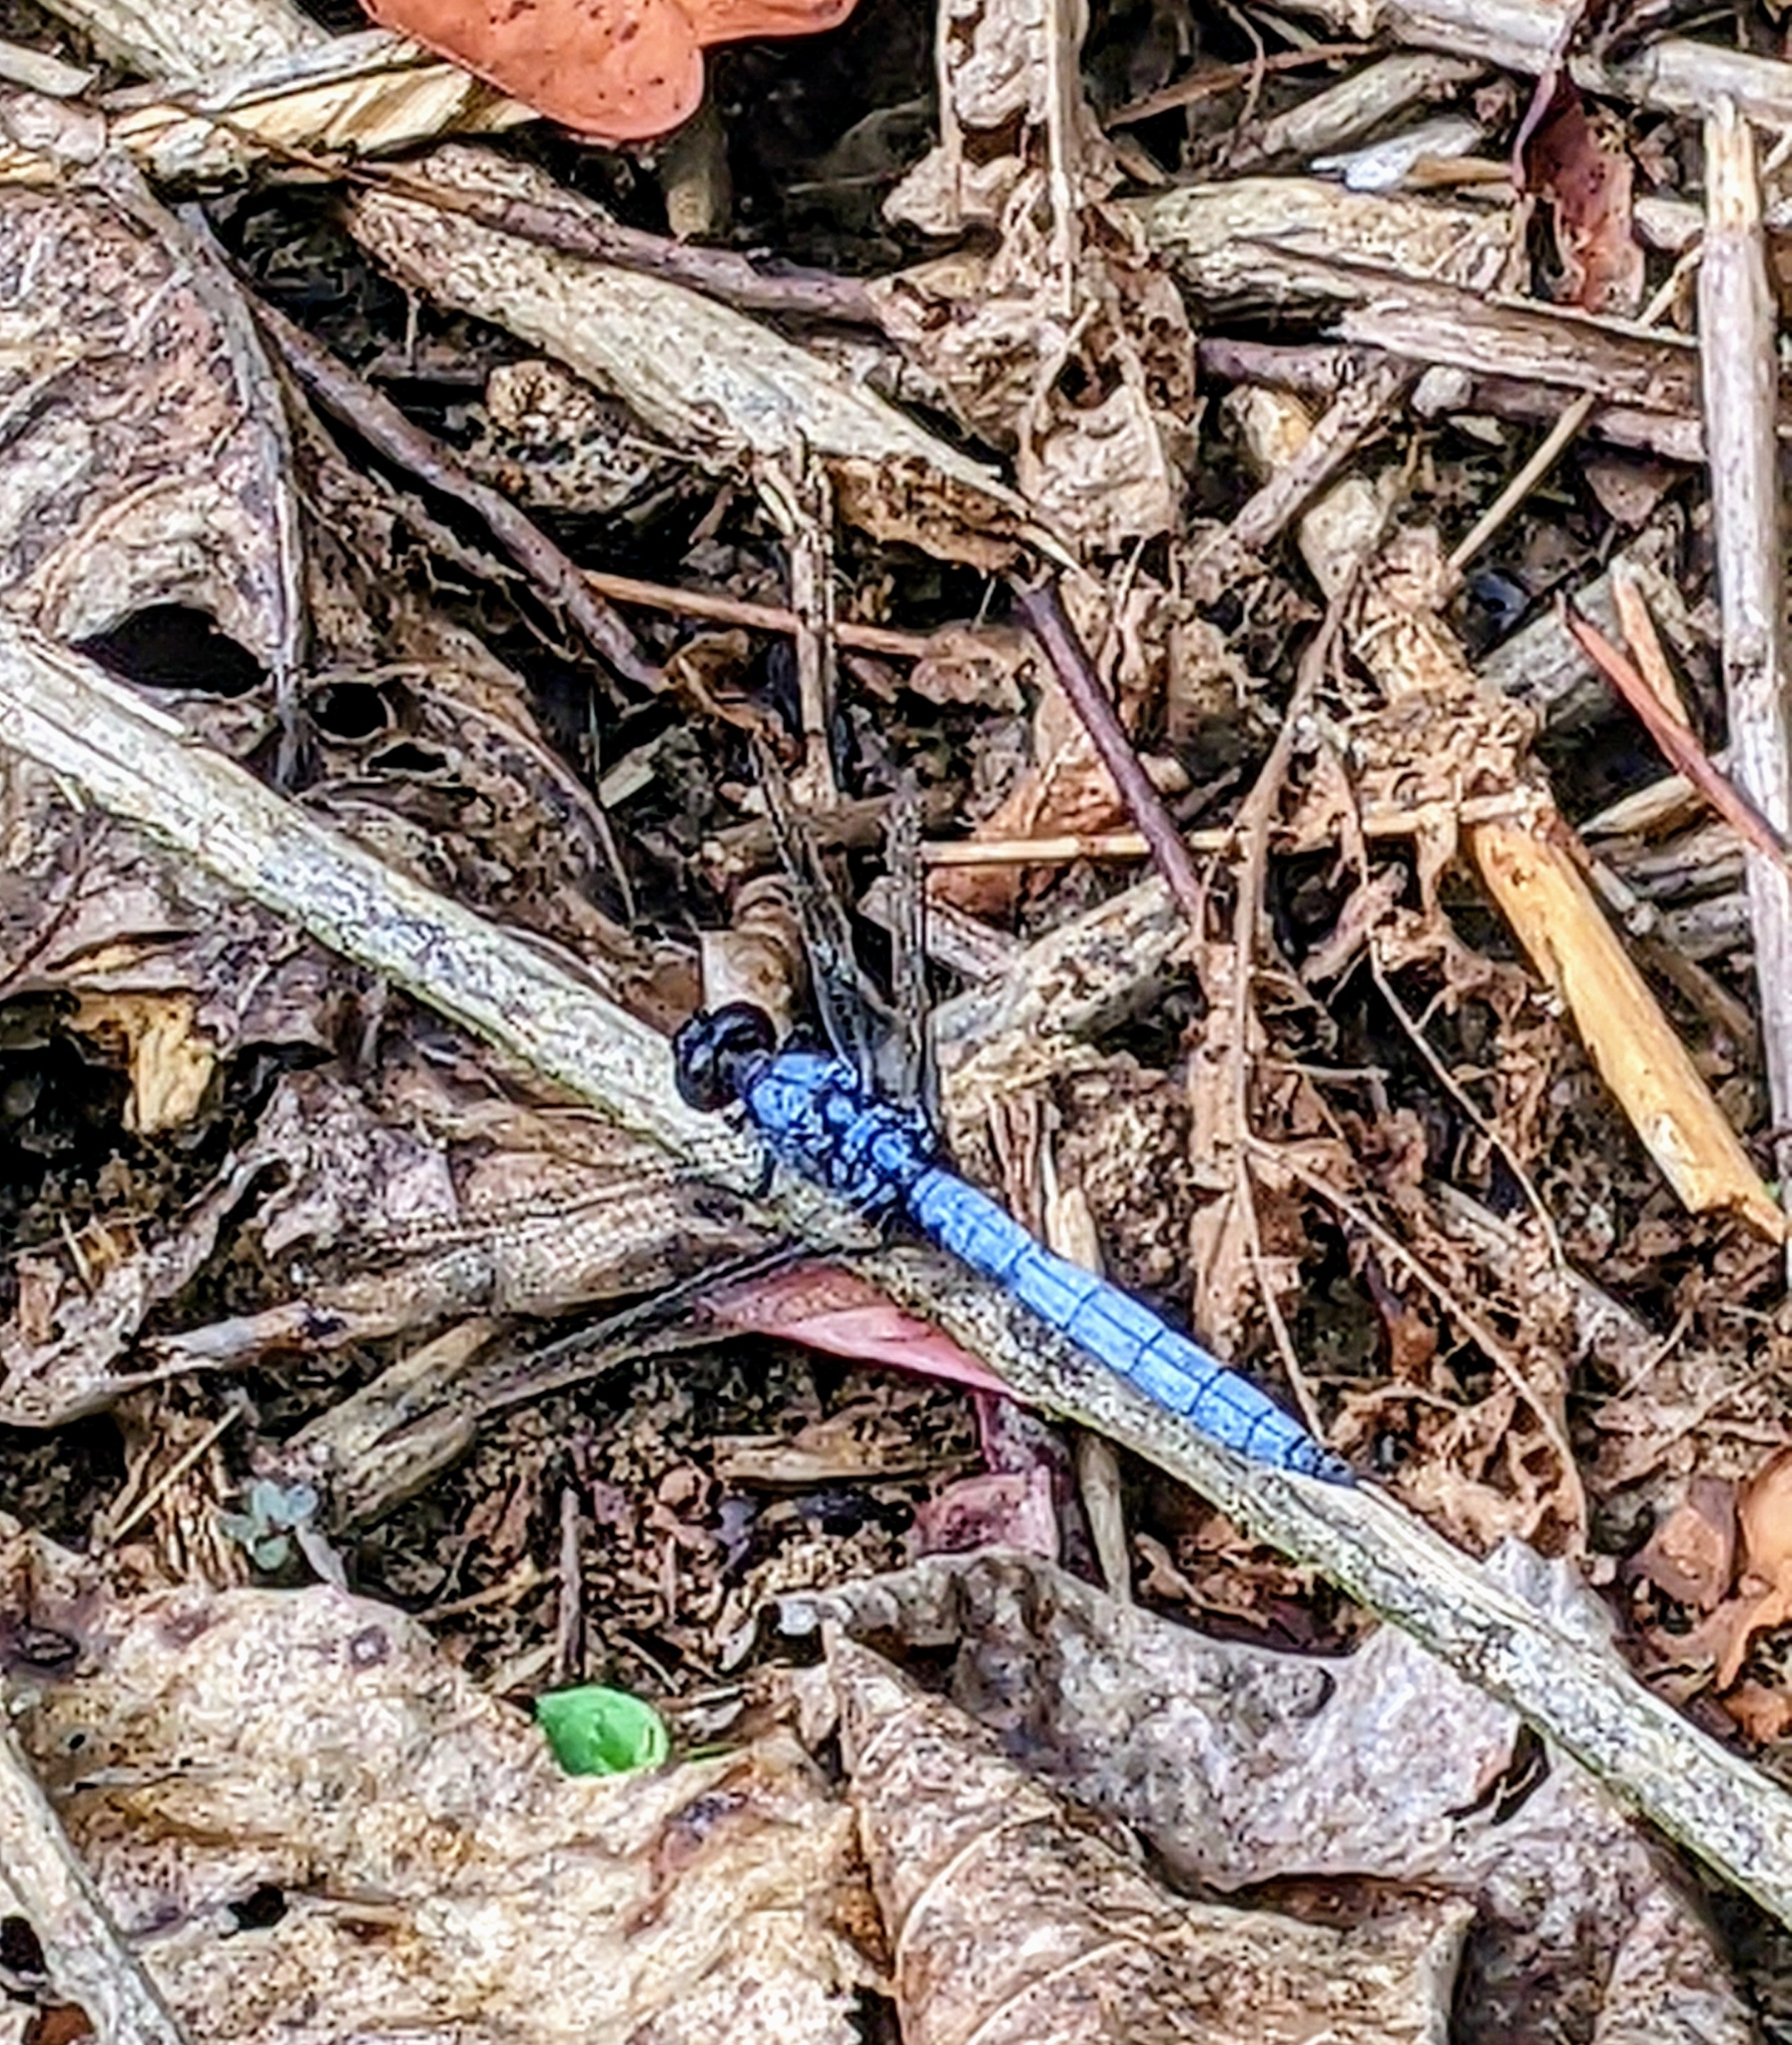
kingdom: Animalia
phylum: Arthropoda
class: Insecta
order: Odonata
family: Libellulidae
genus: Orthetrum
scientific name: Orthetrum glaucum
